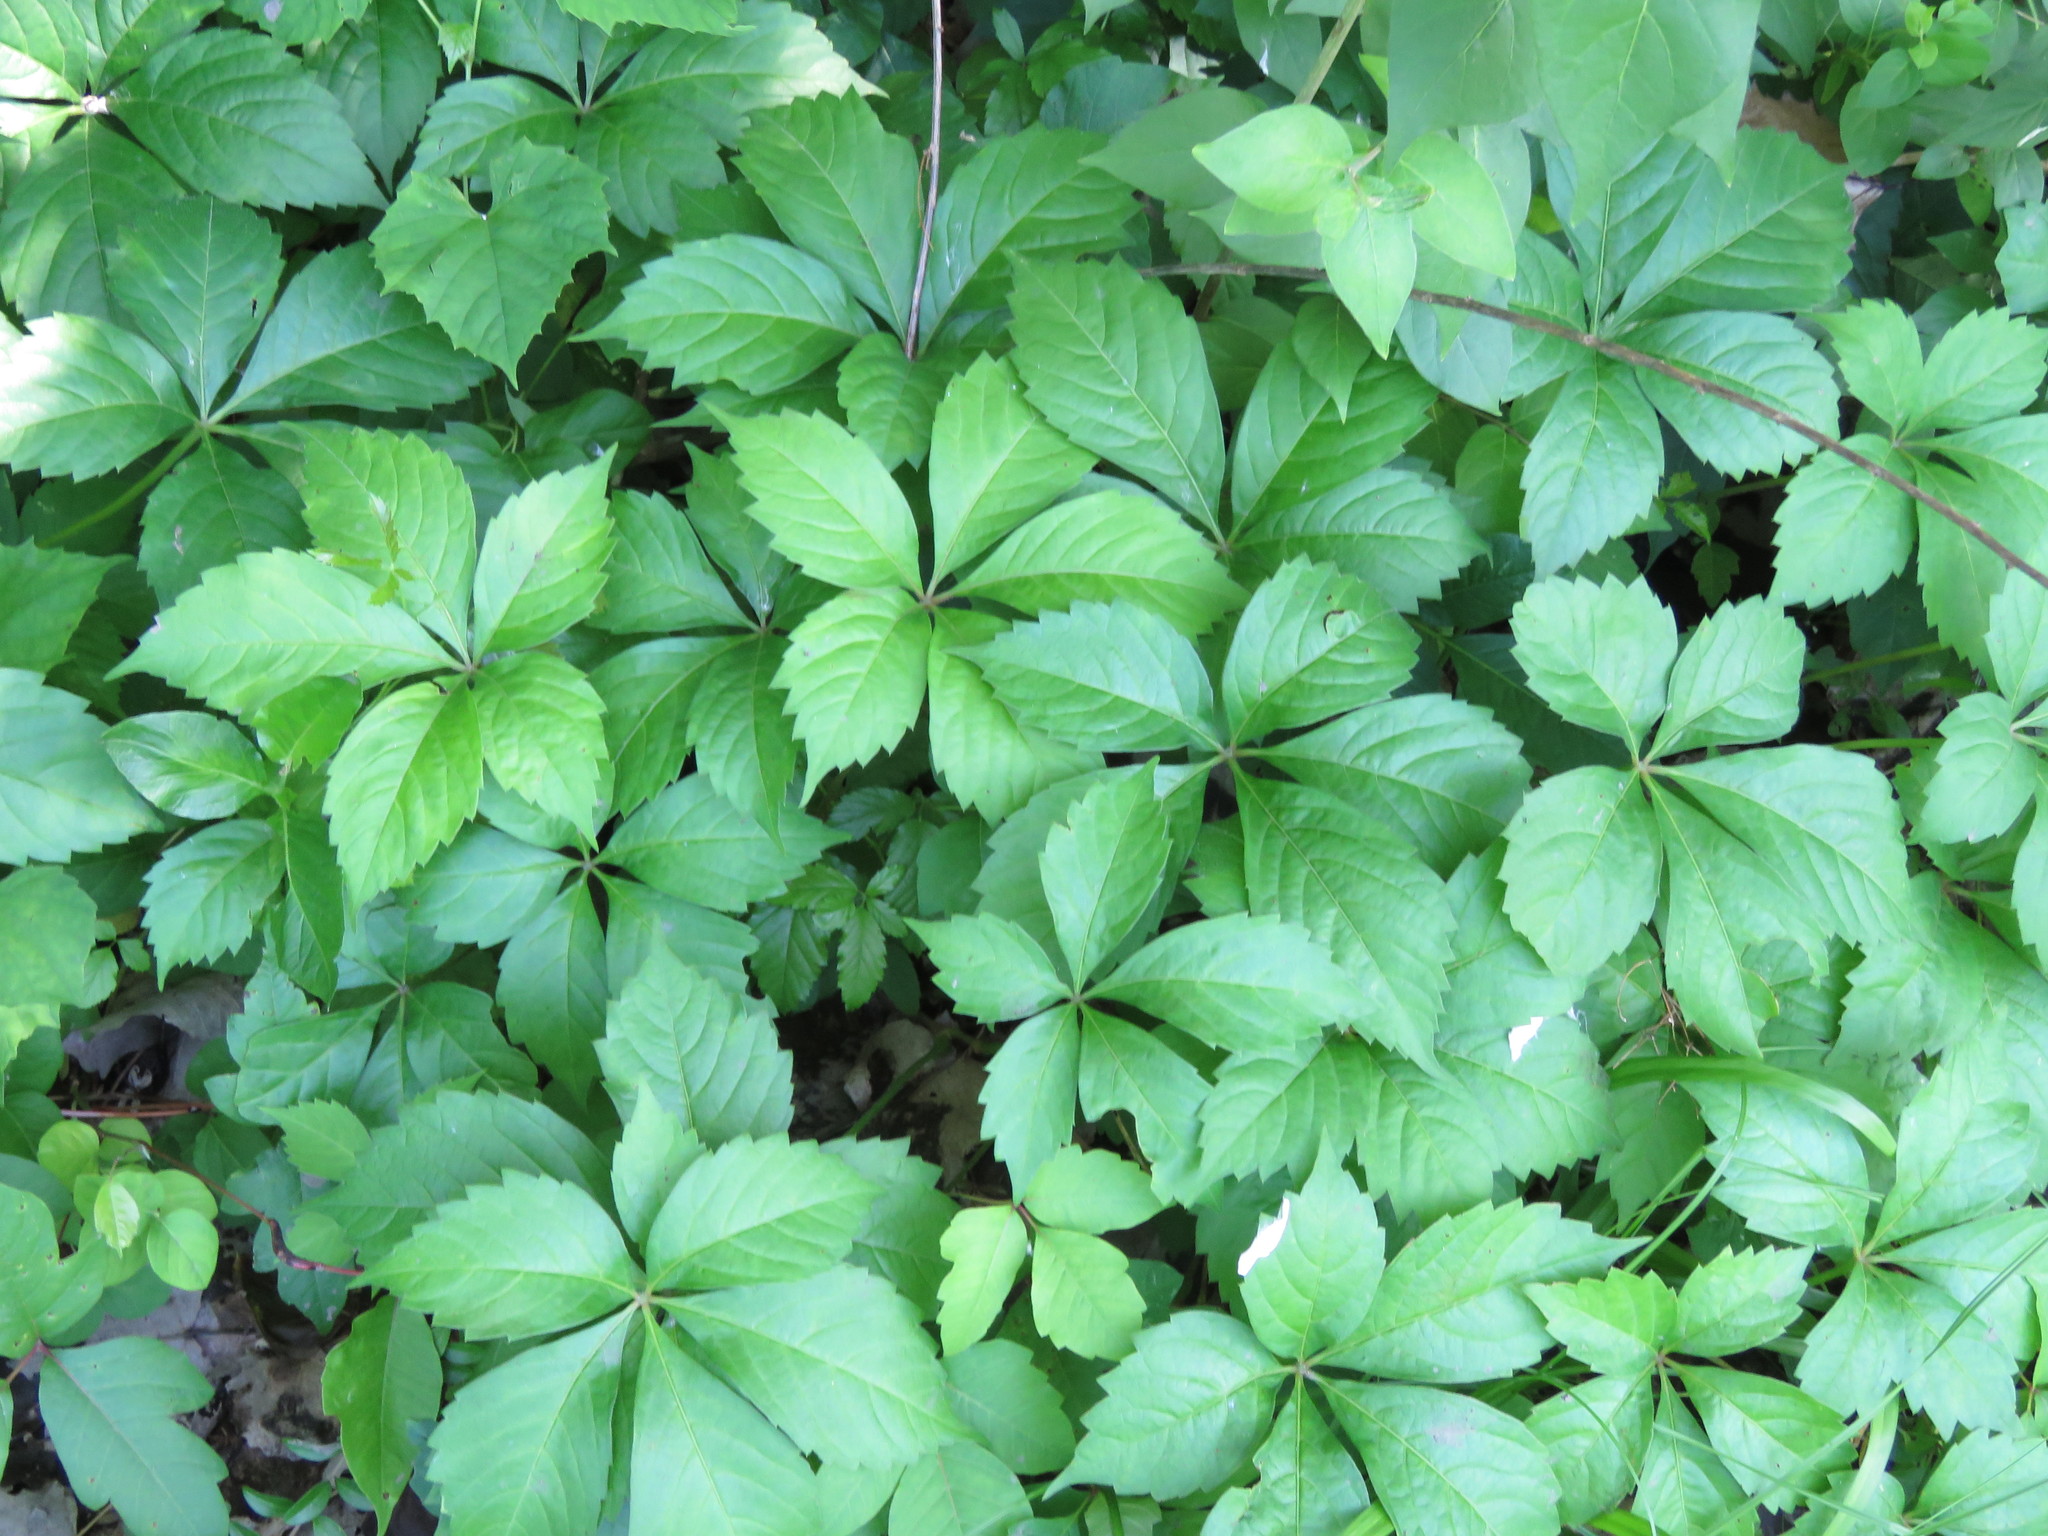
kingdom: Plantae
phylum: Tracheophyta
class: Magnoliopsida
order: Vitales
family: Vitaceae
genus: Parthenocissus
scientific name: Parthenocissus quinquefolia
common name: Virginia-creeper
